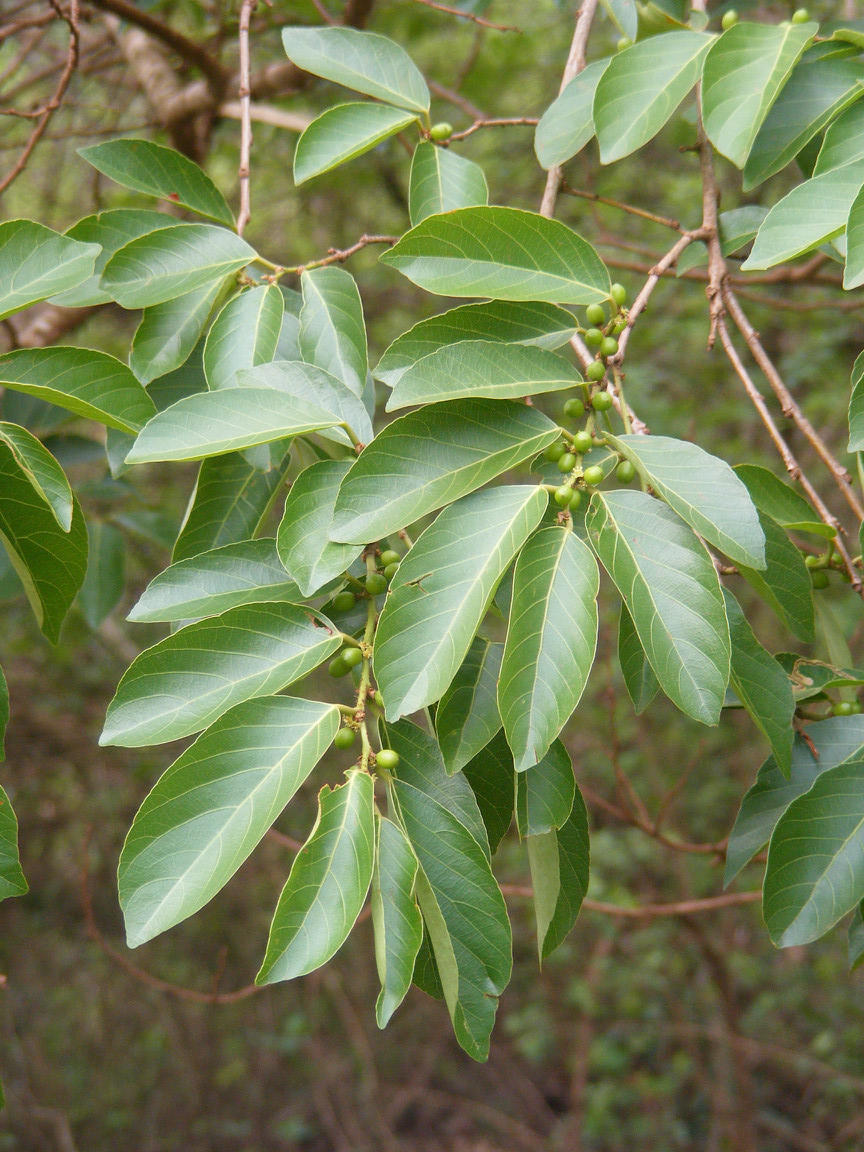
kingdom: Plantae
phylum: Tracheophyta
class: Magnoliopsida
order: Malpighiales
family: Phyllanthaceae
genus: Bridelia
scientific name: Bridelia micrantha
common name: Bridelia
